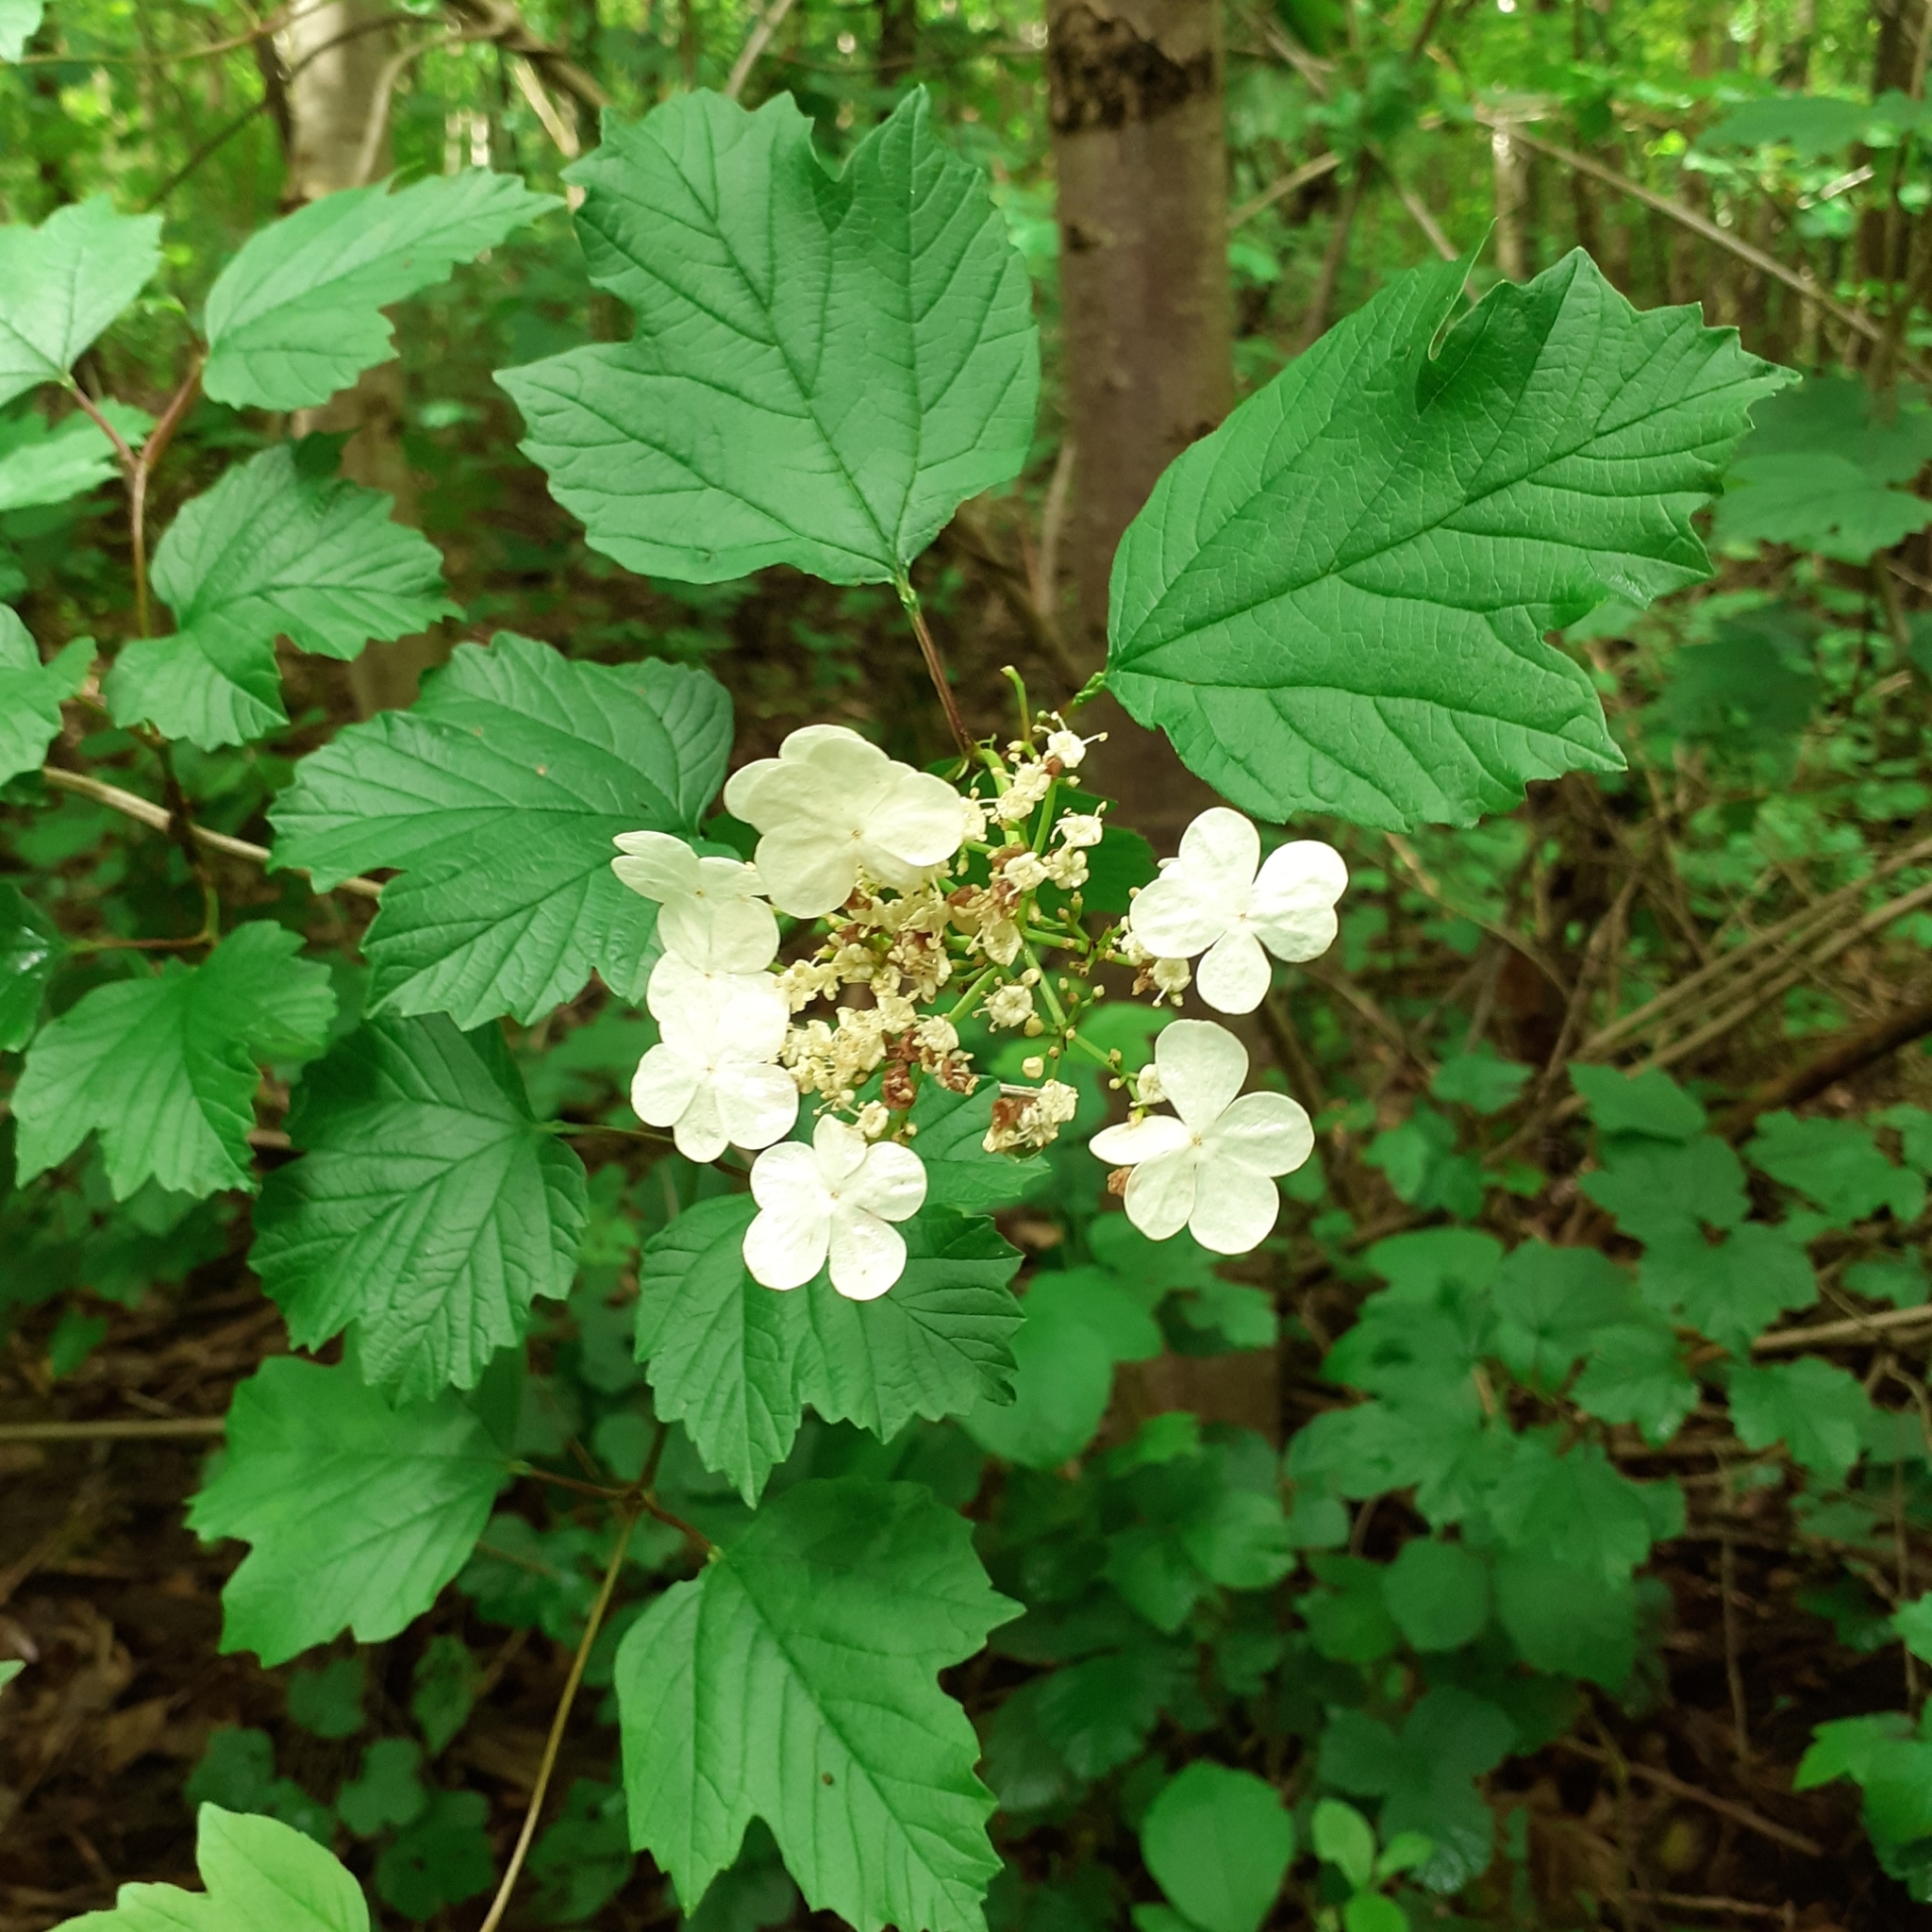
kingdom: Plantae
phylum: Tracheophyta
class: Magnoliopsida
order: Dipsacales
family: Viburnaceae
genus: Viburnum
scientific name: Viburnum opulus
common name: Guelder-rose
